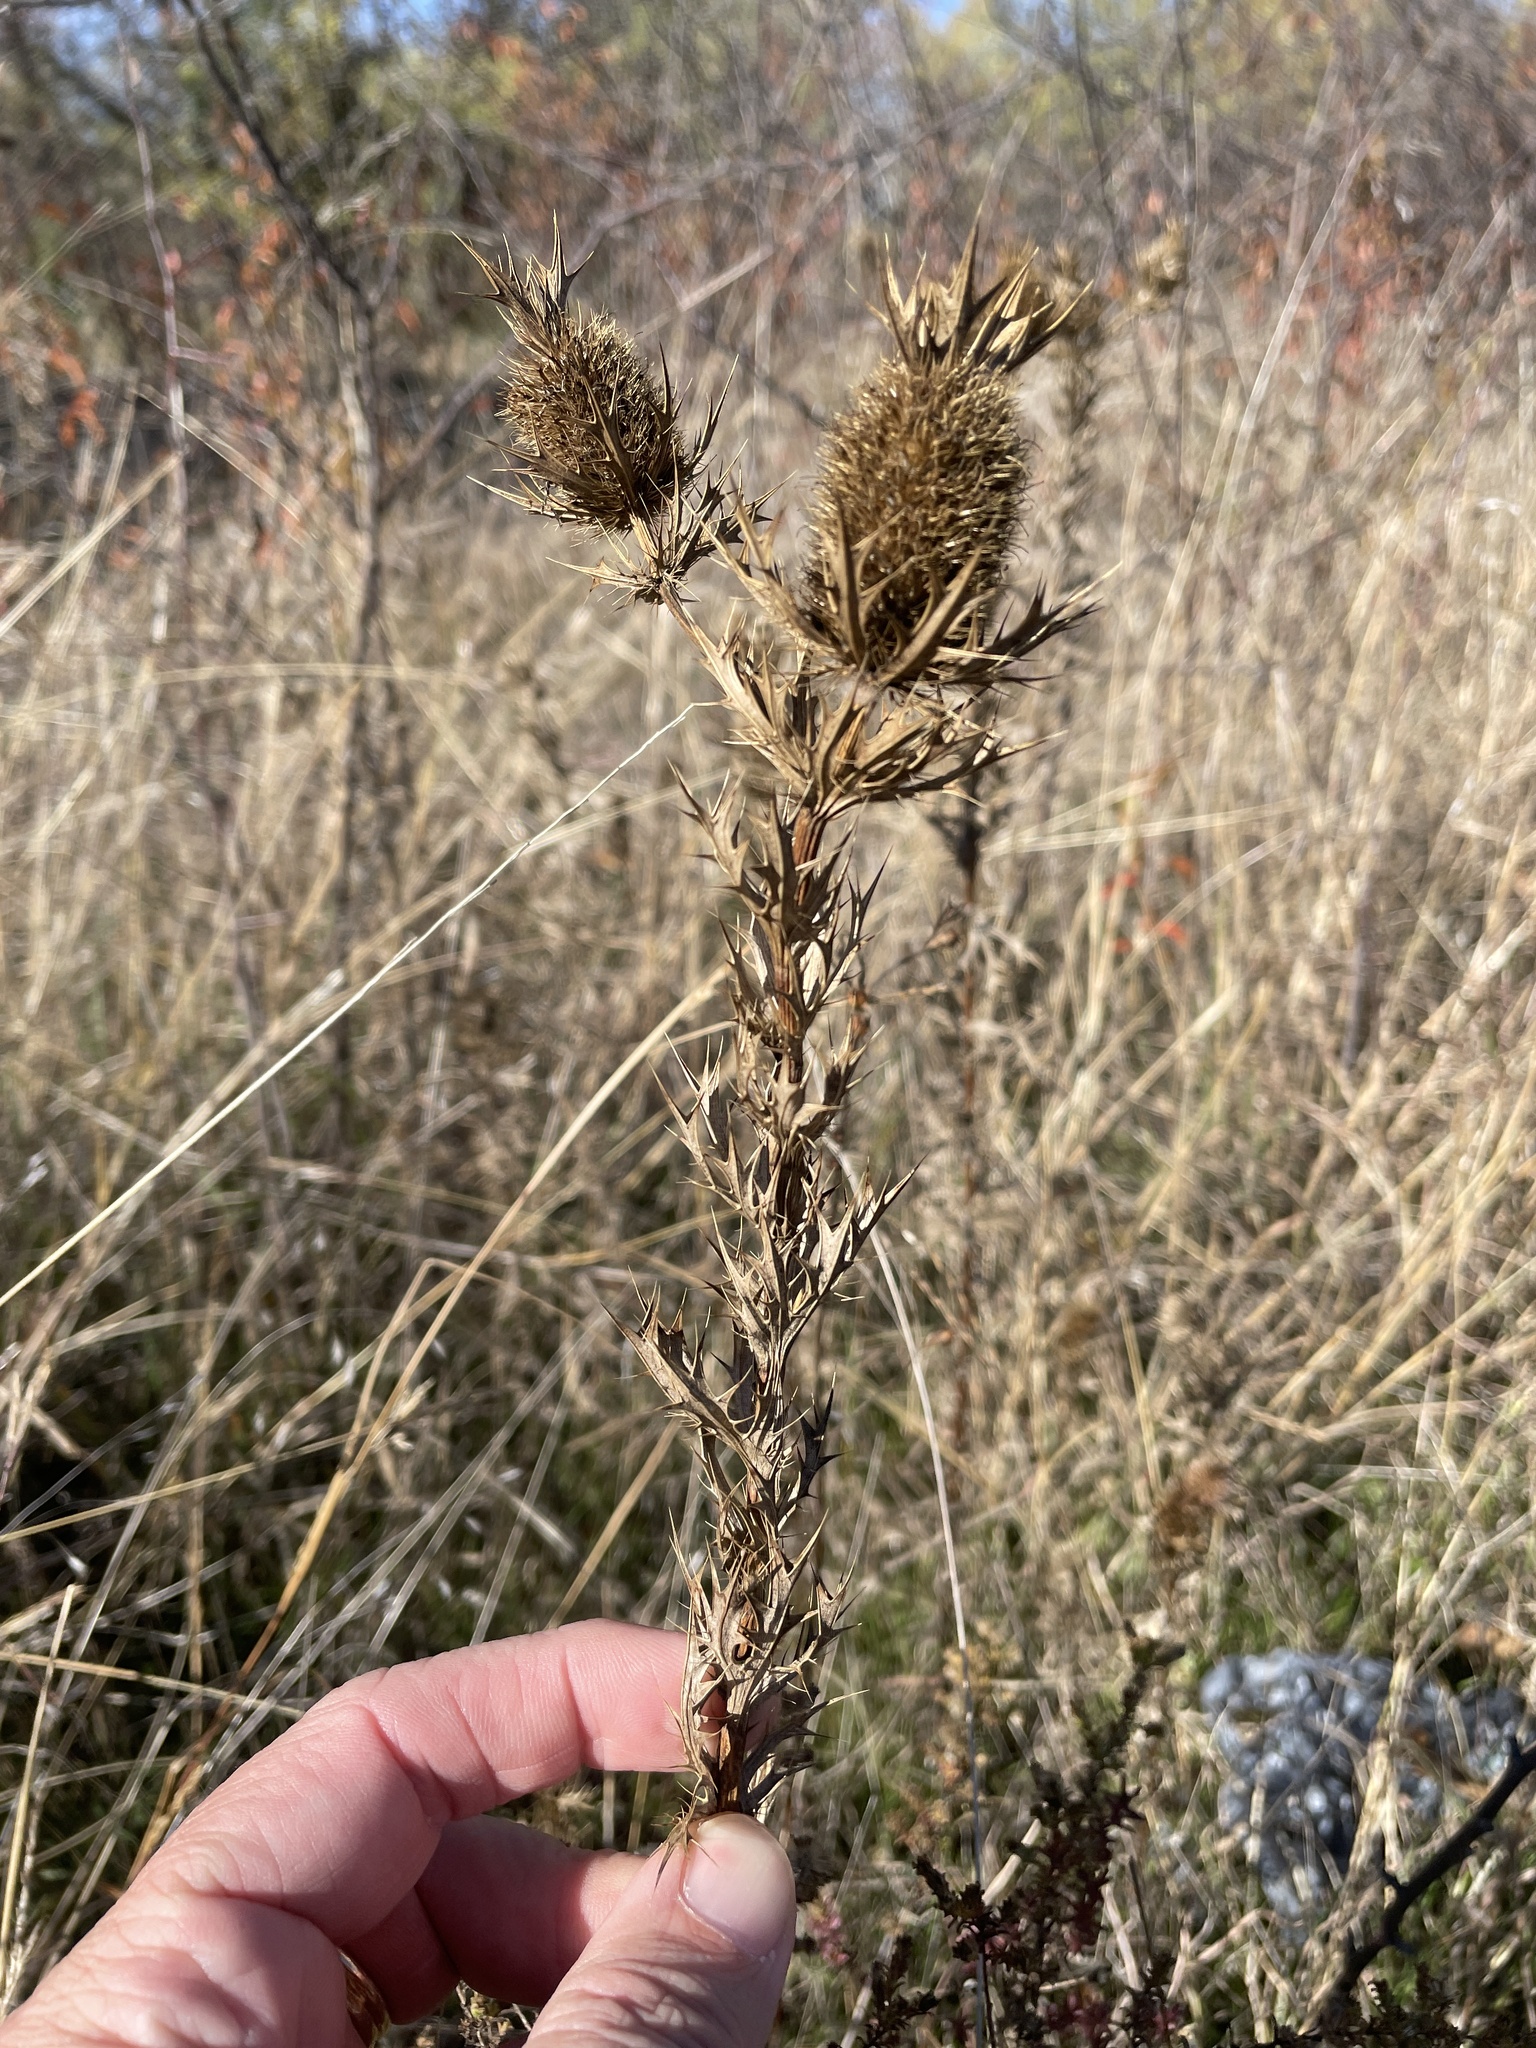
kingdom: Plantae
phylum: Tracheophyta
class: Magnoliopsida
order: Apiales
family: Apiaceae
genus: Eryngium
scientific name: Eryngium leavenworthii
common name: Leavenworth's eryngo
